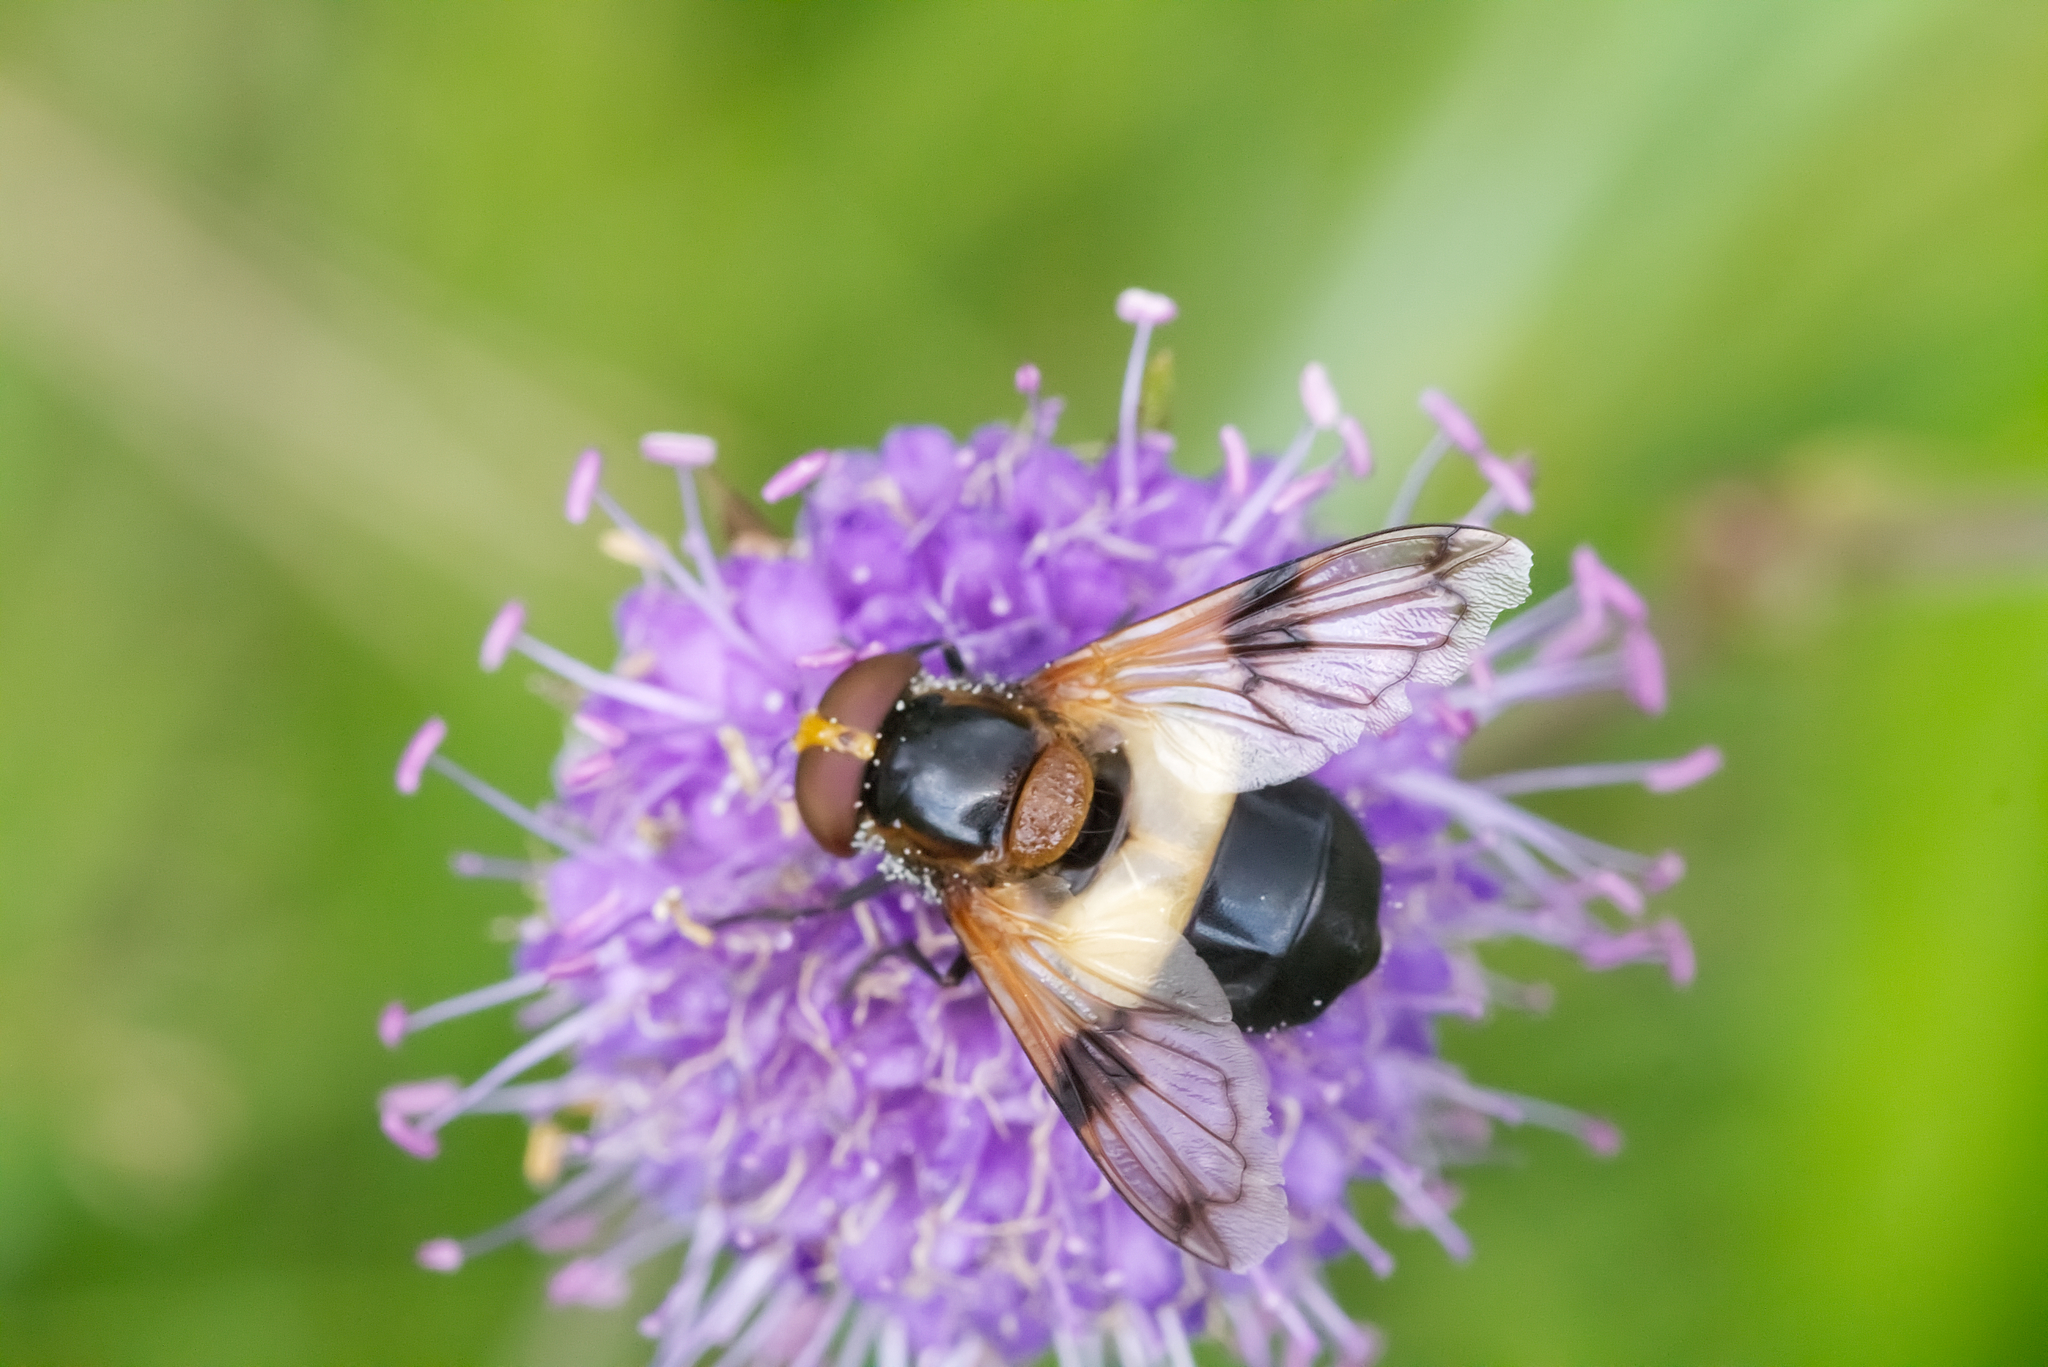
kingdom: Animalia
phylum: Arthropoda
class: Insecta
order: Diptera
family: Syrphidae
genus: Volucella
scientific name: Volucella pellucens
